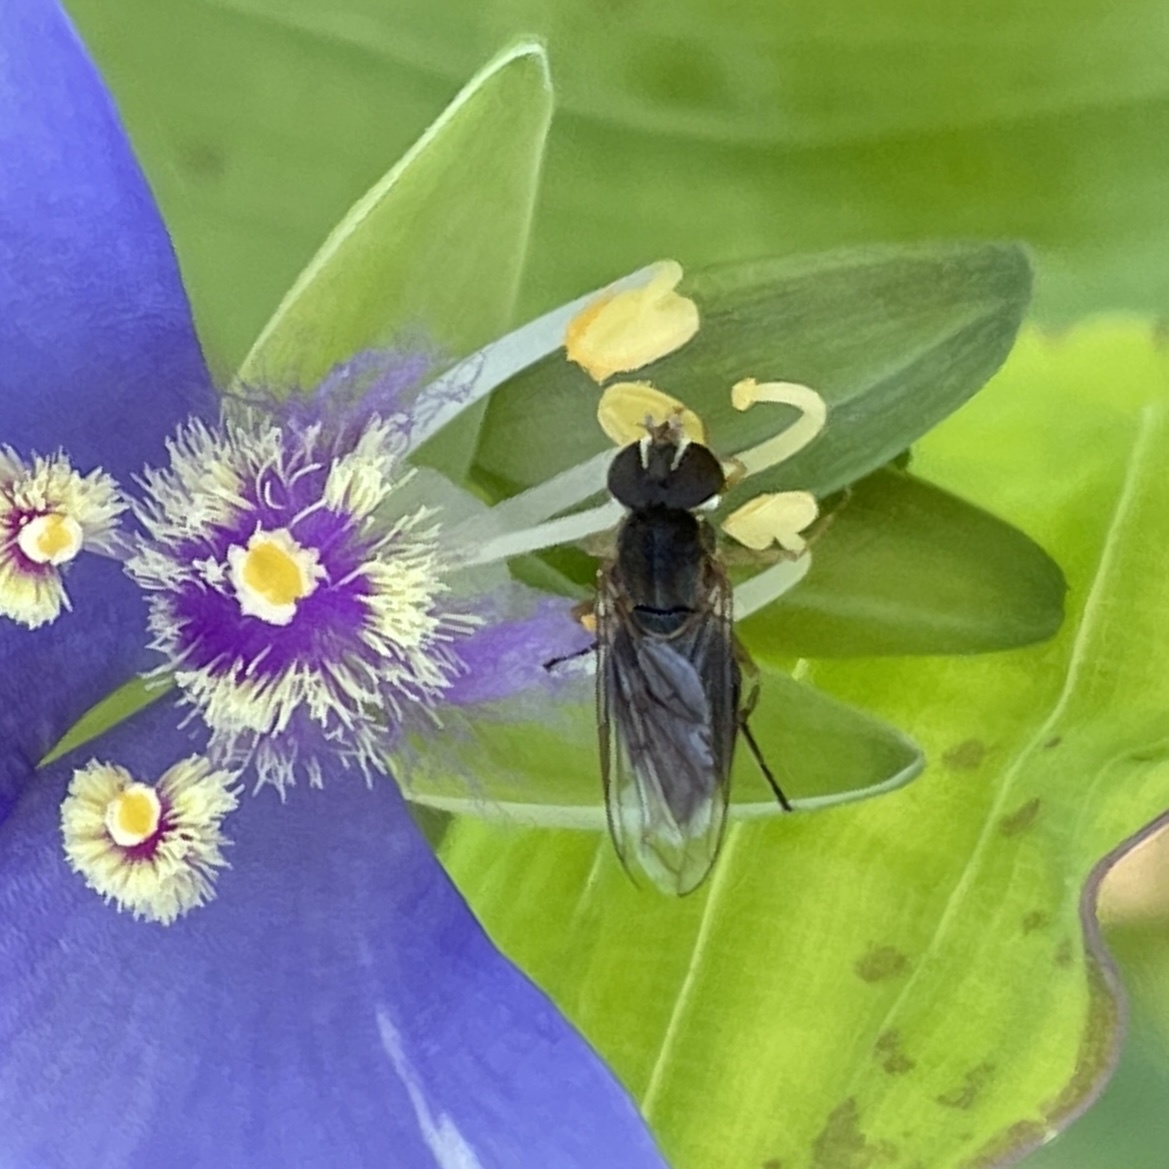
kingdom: Animalia
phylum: Arthropoda
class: Insecta
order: Diptera
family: Syrphidae
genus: Toxomerus
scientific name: Toxomerus marginatus
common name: Syrphid fly
